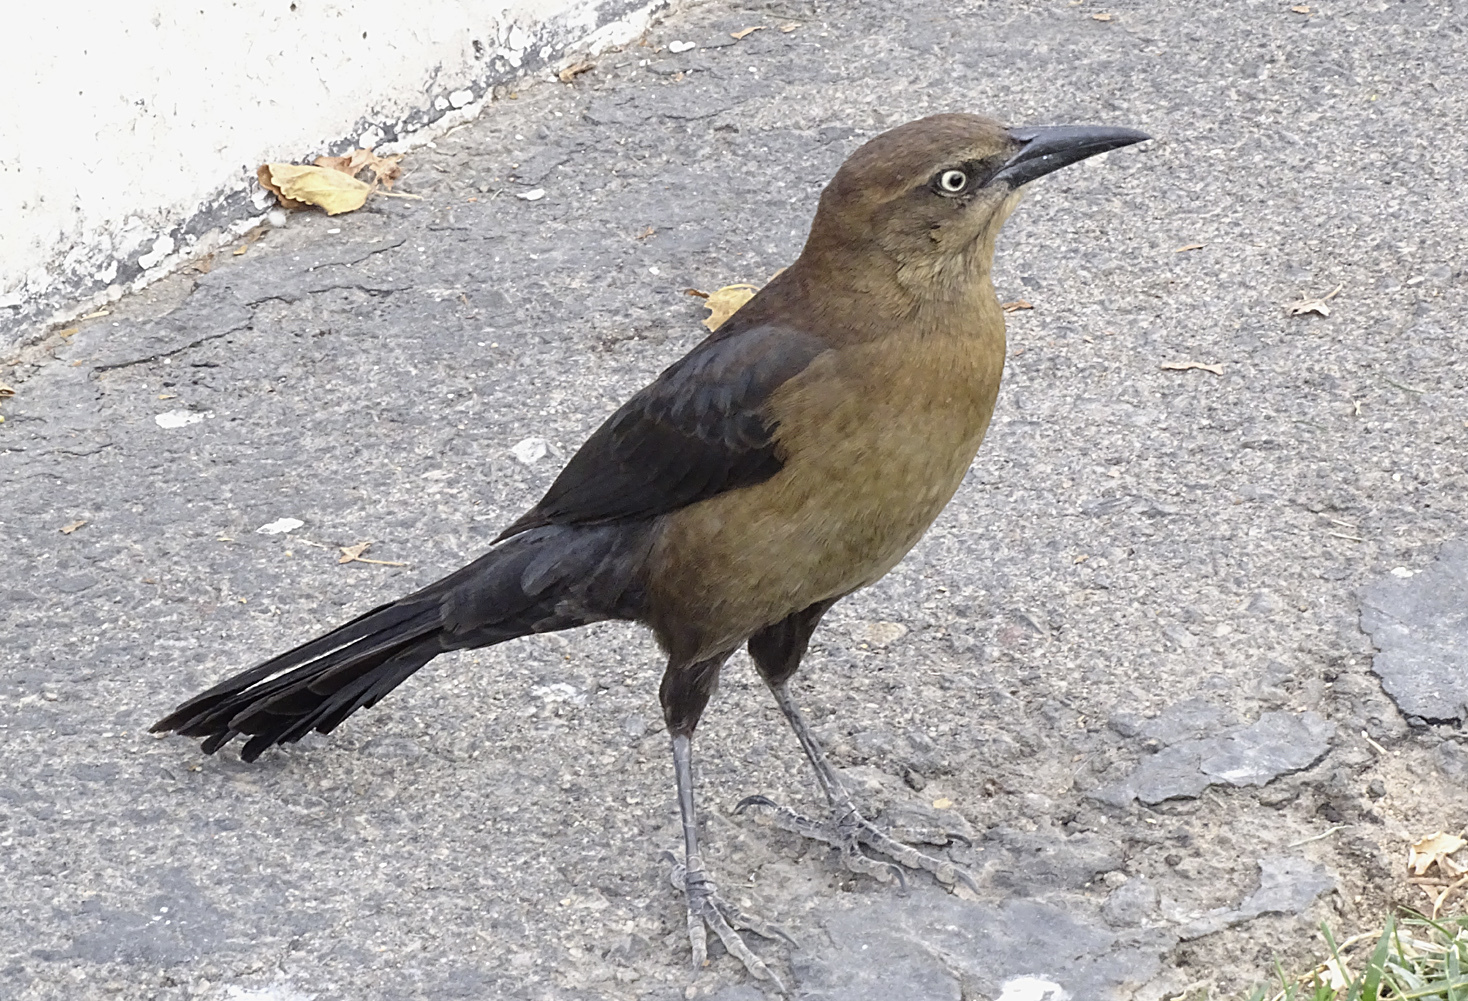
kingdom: Animalia
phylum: Chordata
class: Aves
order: Passeriformes
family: Icteridae
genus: Quiscalus
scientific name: Quiscalus mexicanus
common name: Great-tailed grackle
